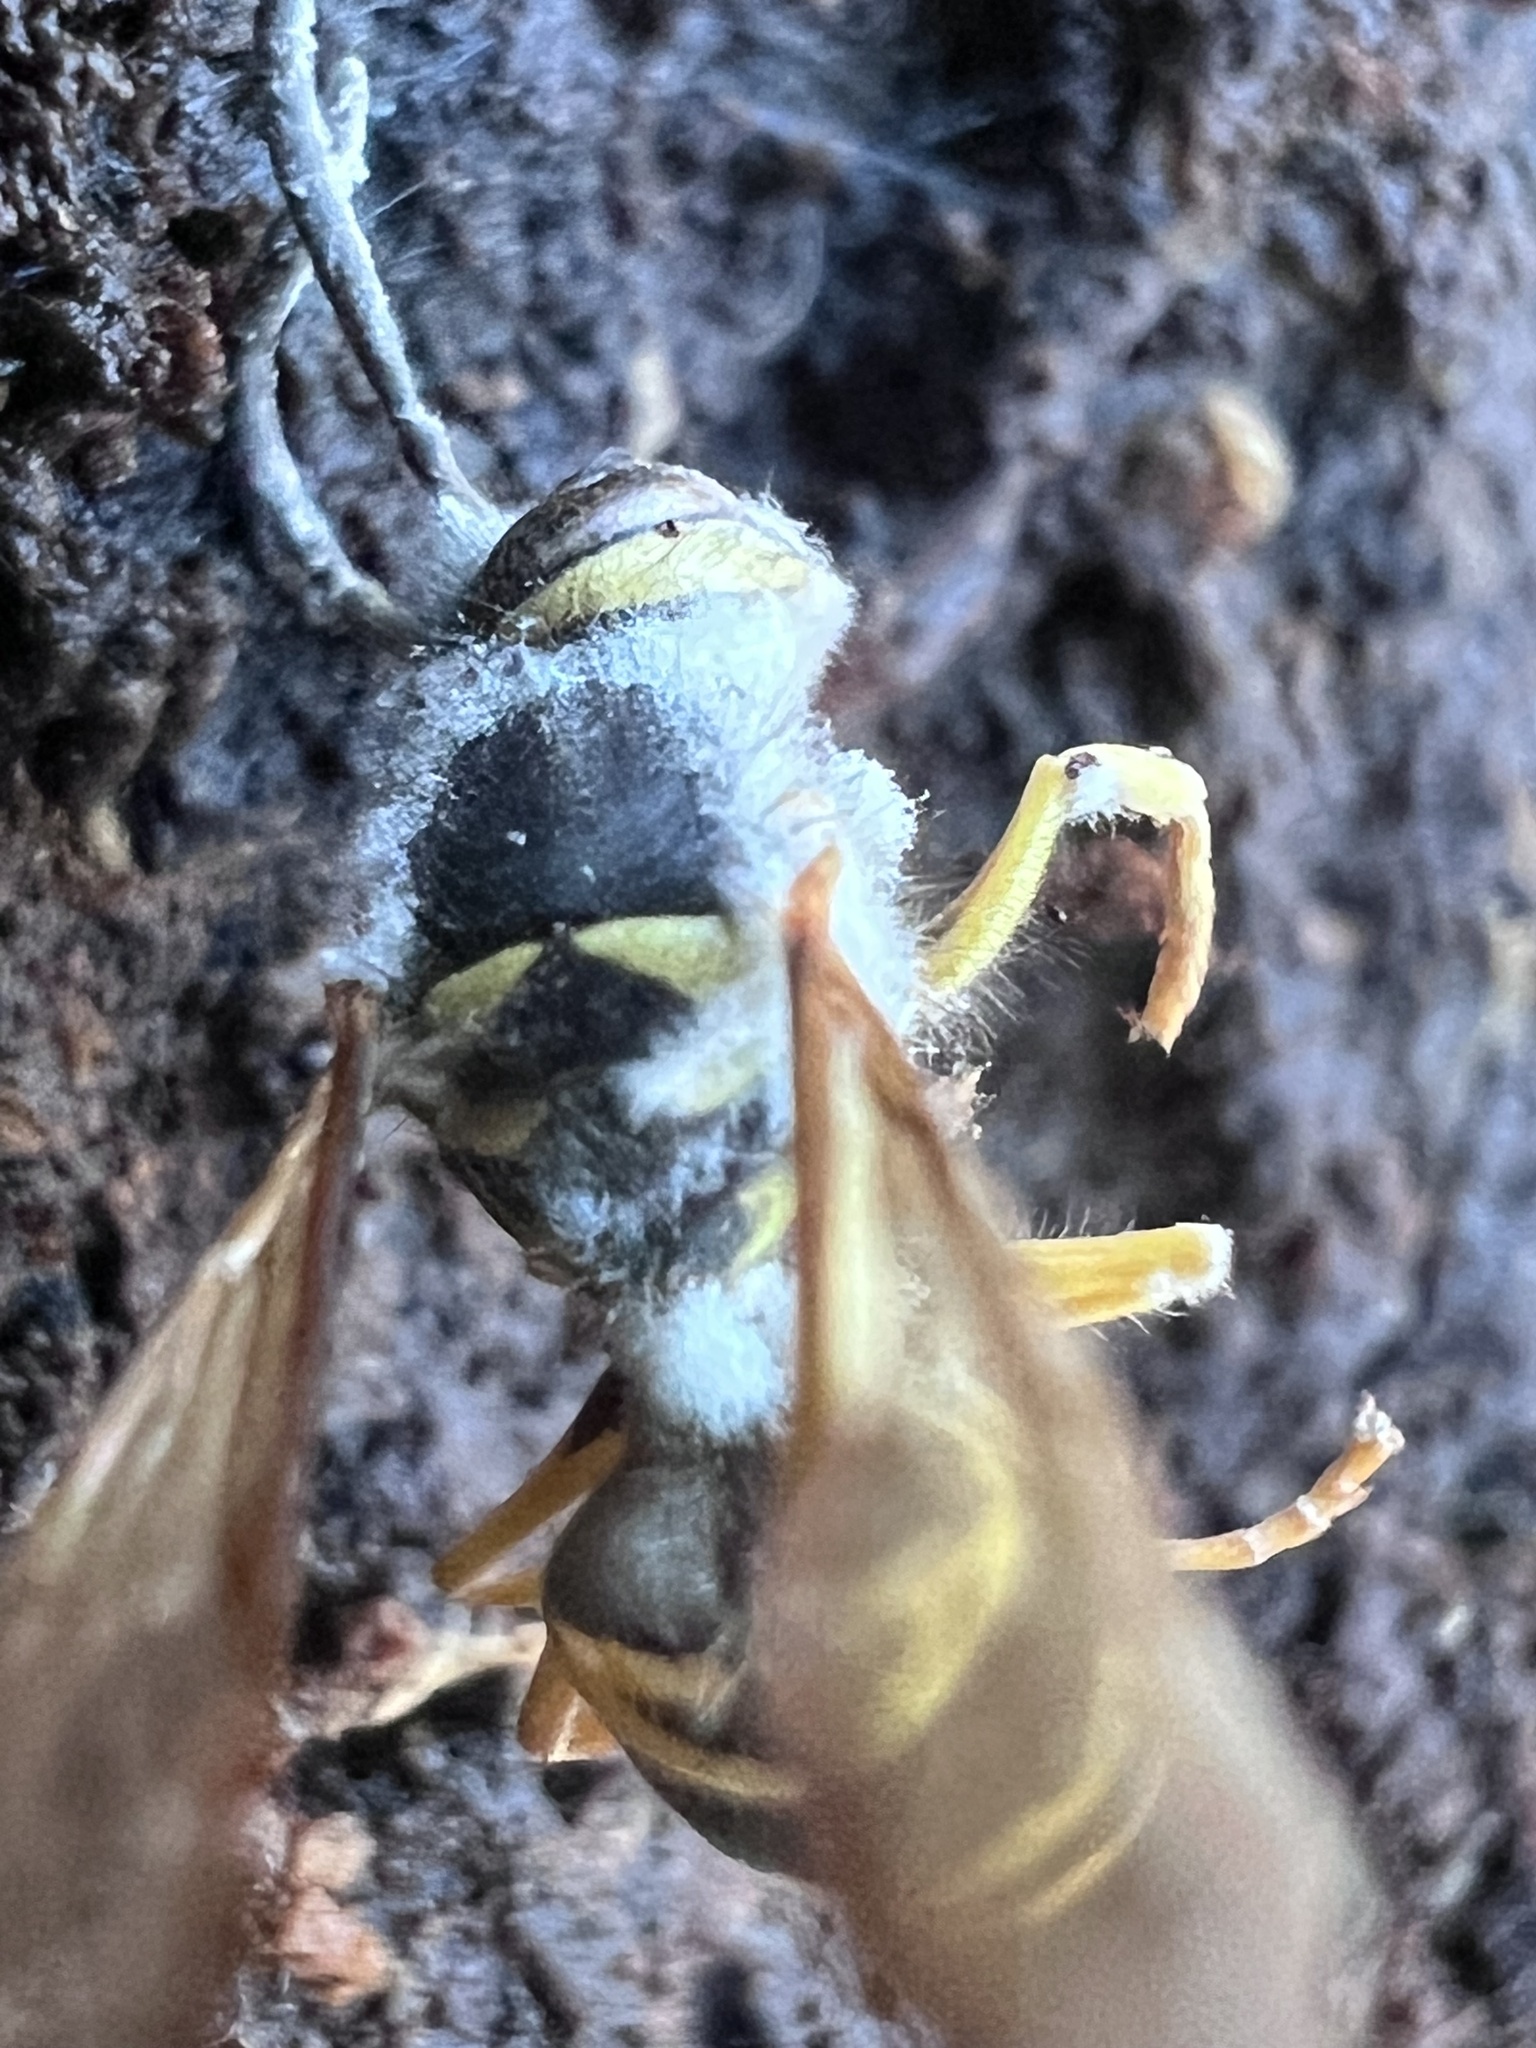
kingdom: Fungi
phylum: Ascomycota
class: Sordariomycetes
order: Hypocreales
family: Cordycipitaceae
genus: Beauveria
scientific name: Beauveria bassiana
